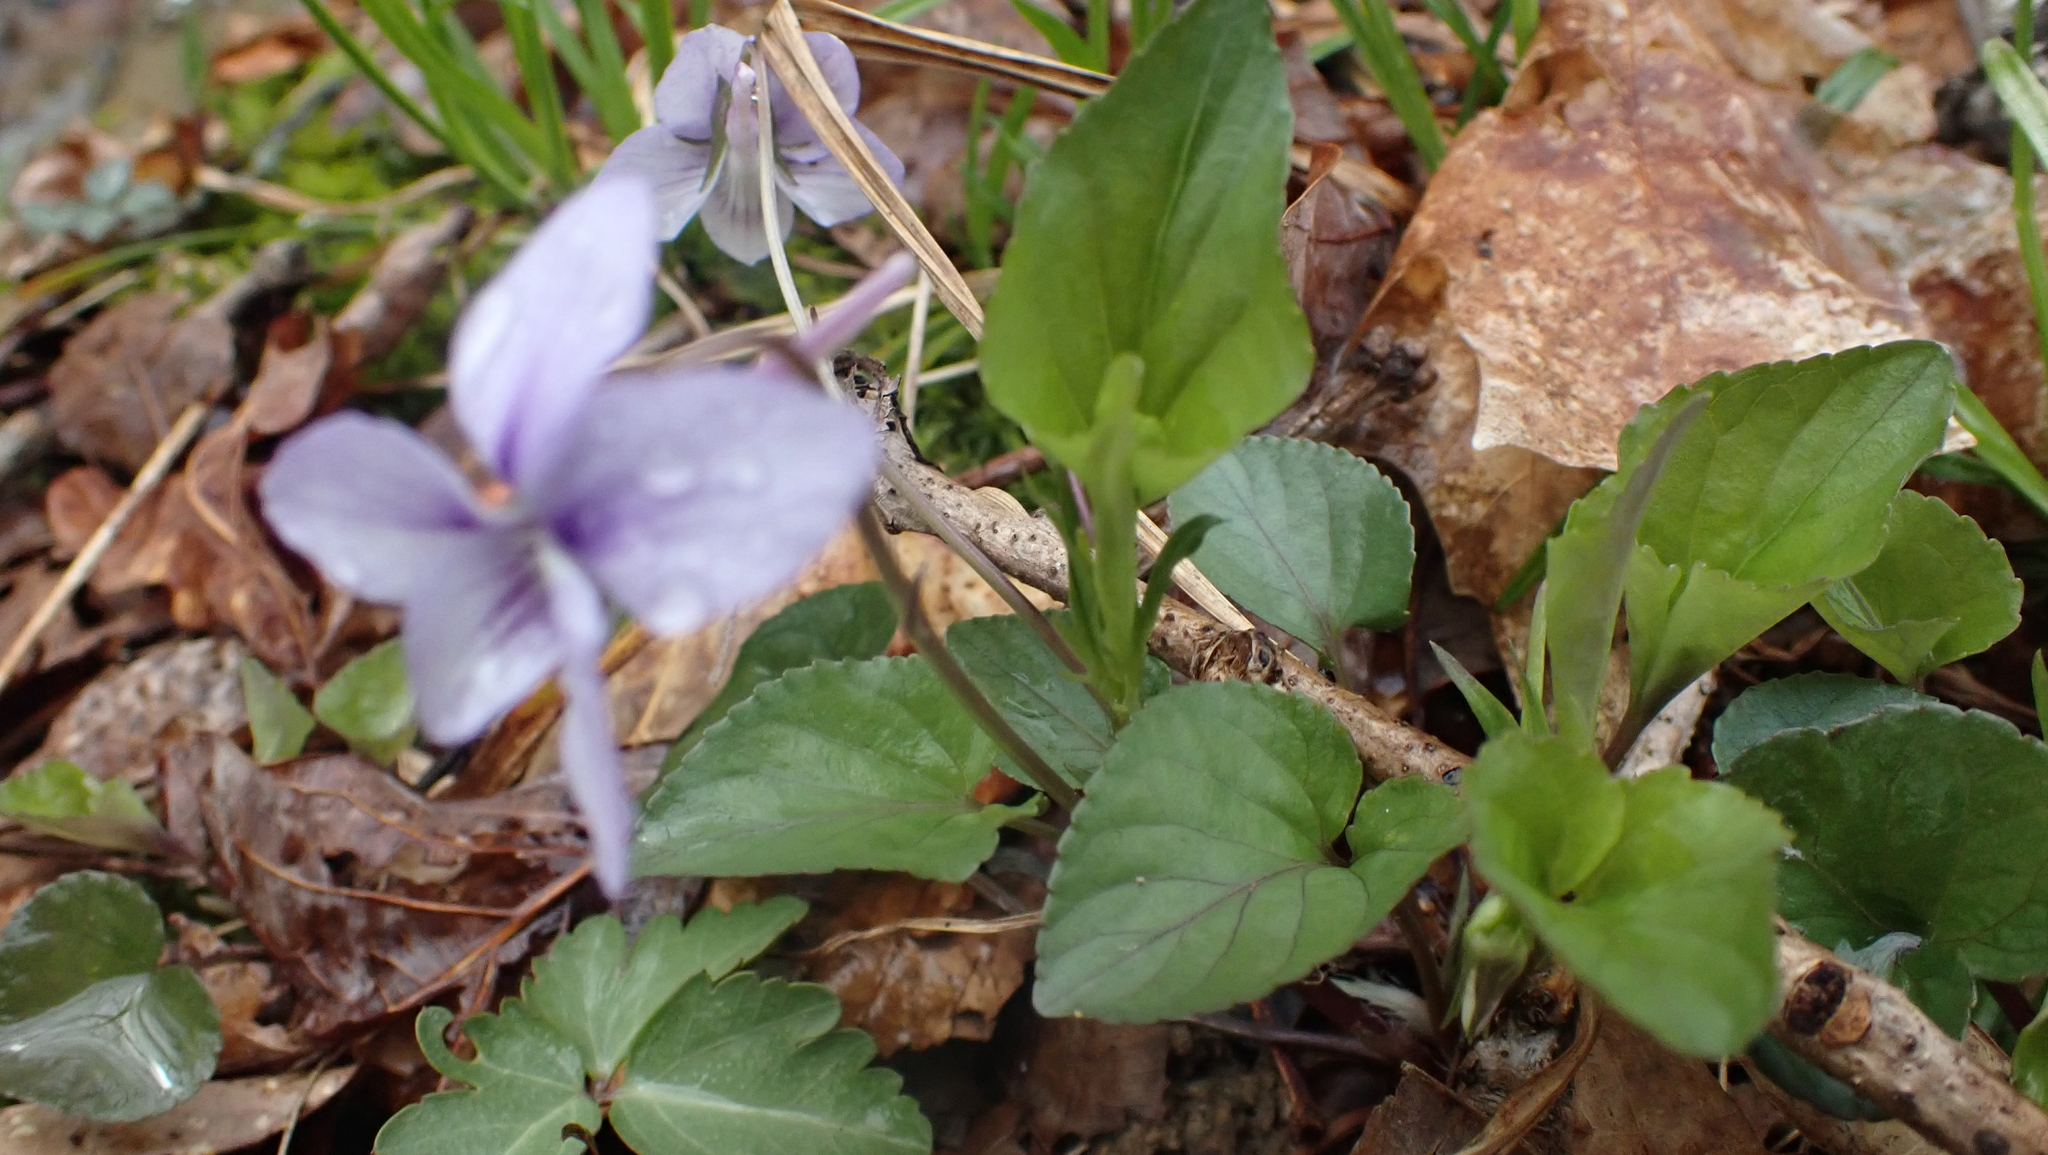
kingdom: Plantae
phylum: Tracheophyta
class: Magnoliopsida
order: Malpighiales
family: Violaceae
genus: Viola
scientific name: Viola rostrata
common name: Long-spur violet
